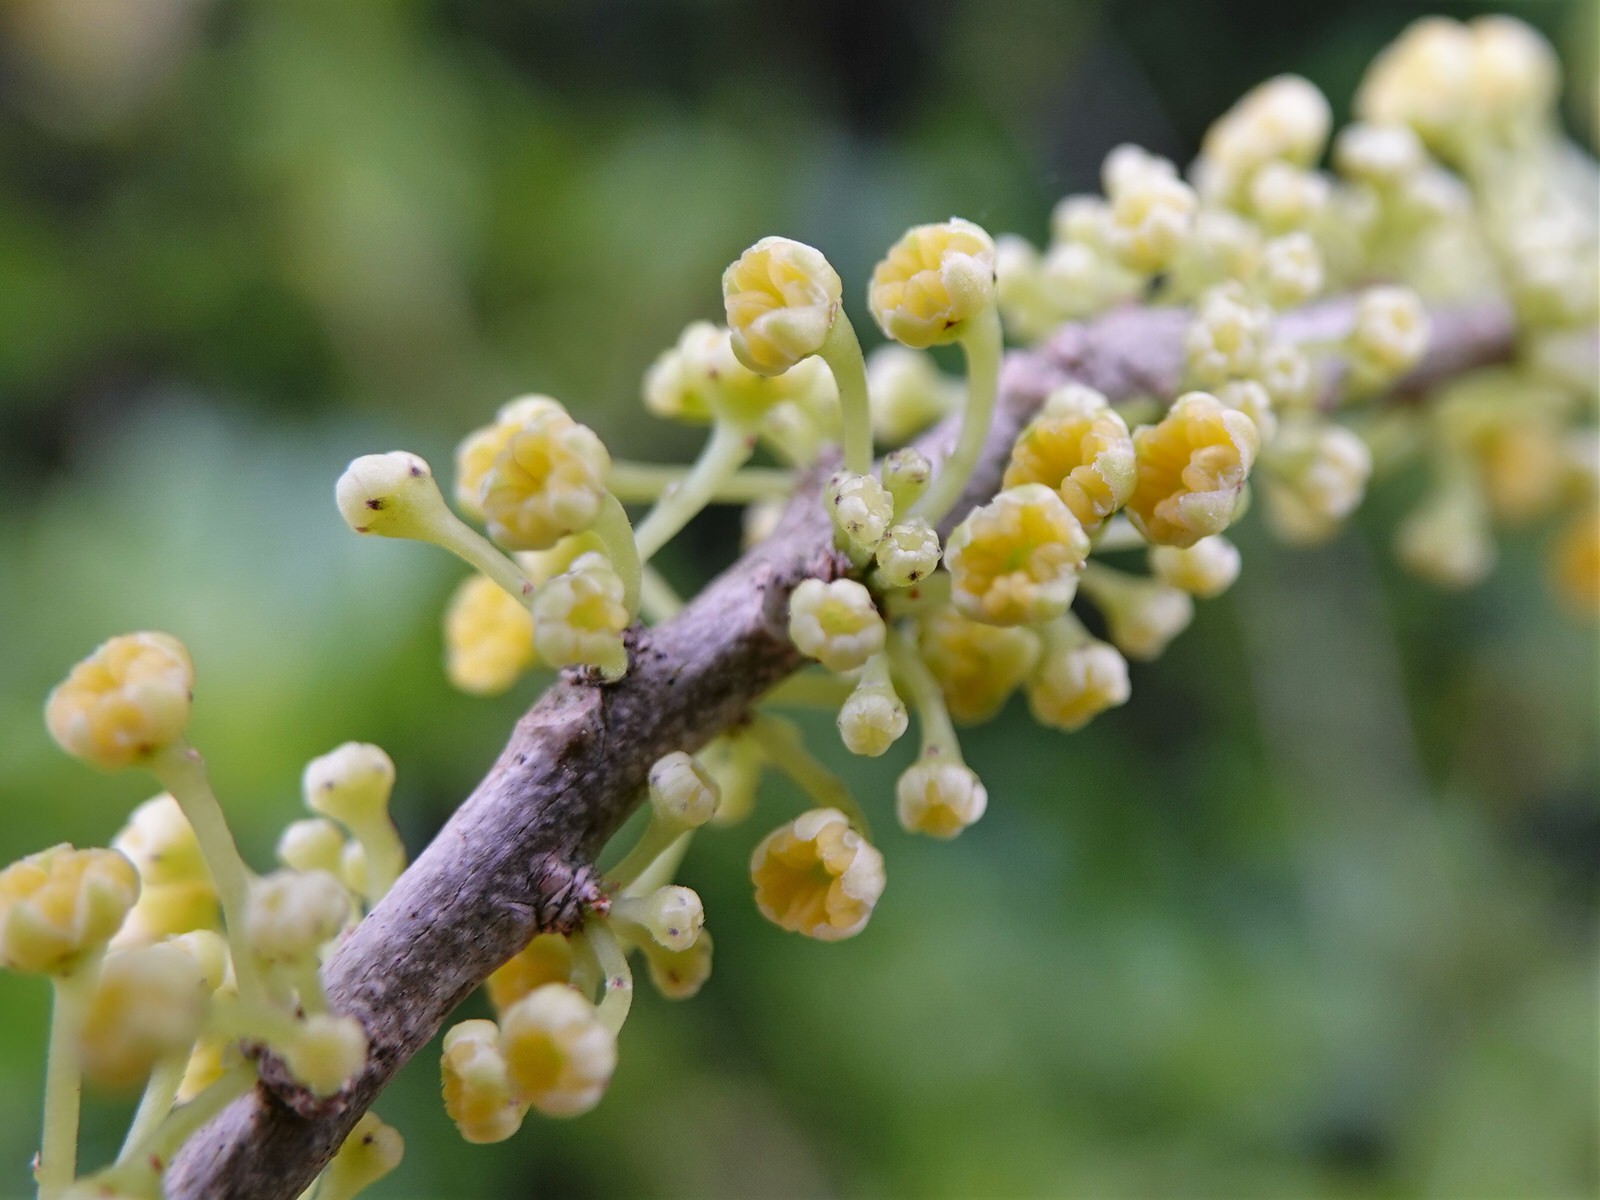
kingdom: Plantae
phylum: Tracheophyta
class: Magnoliopsida
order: Malpighiales
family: Violaceae
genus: Melicytus
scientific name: Melicytus ramiflorus
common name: Mahoe
